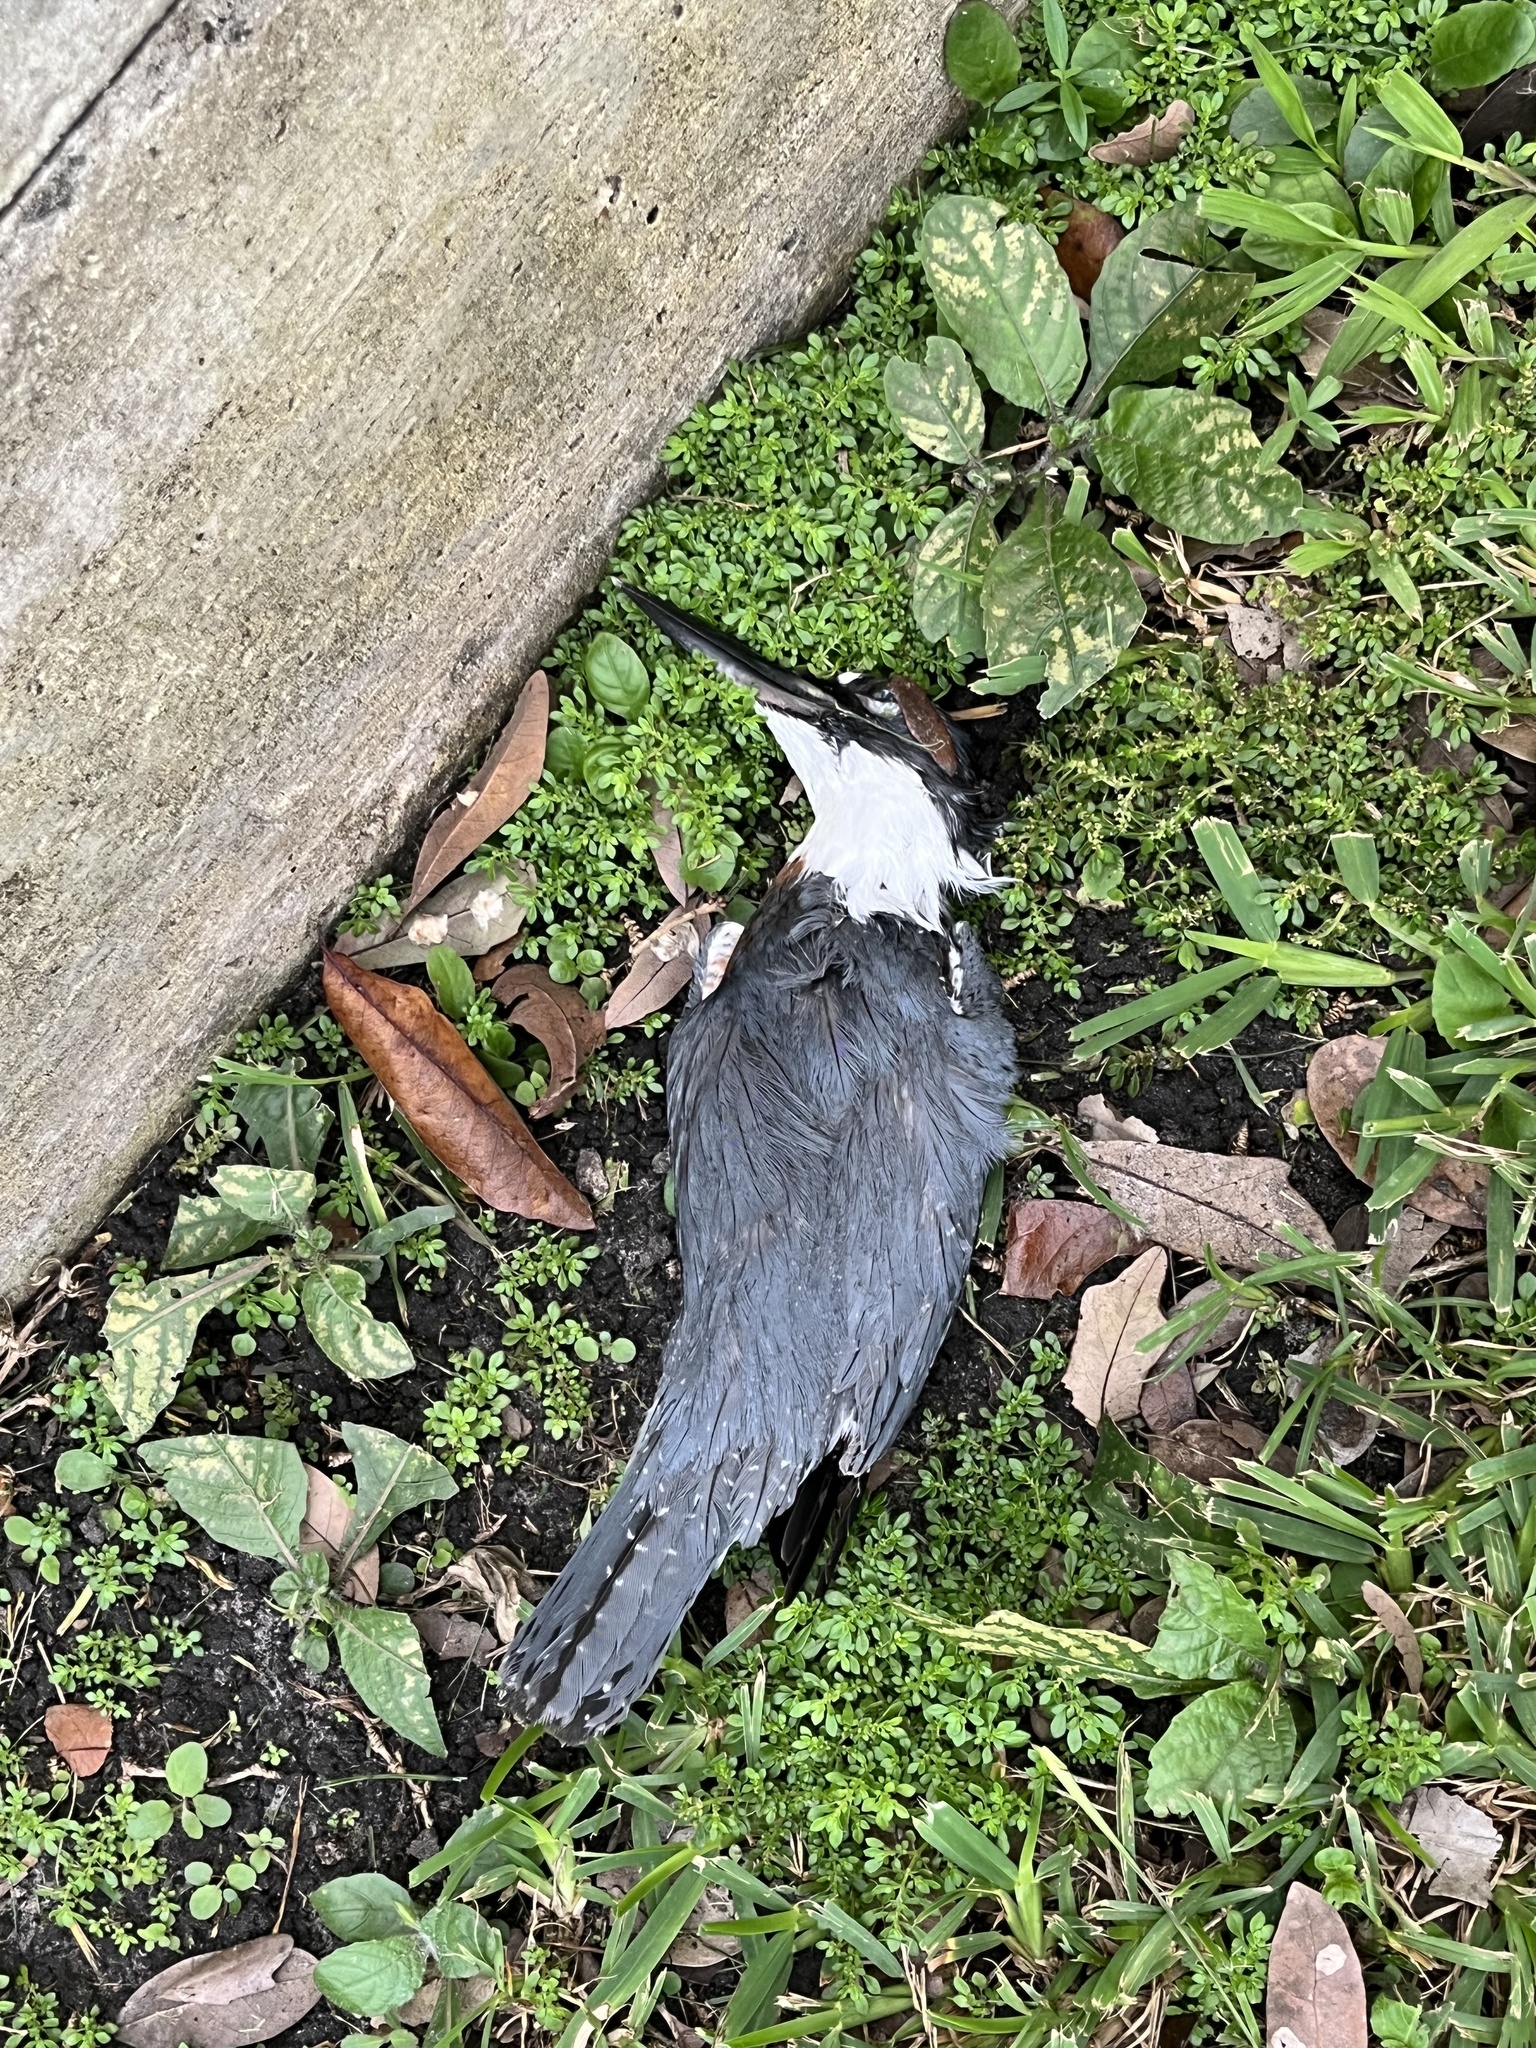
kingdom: Animalia
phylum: Chordata
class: Aves
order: Coraciiformes
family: Alcedinidae
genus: Megaceryle
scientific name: Megaceryle alcyon
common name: Belted kingfisher
